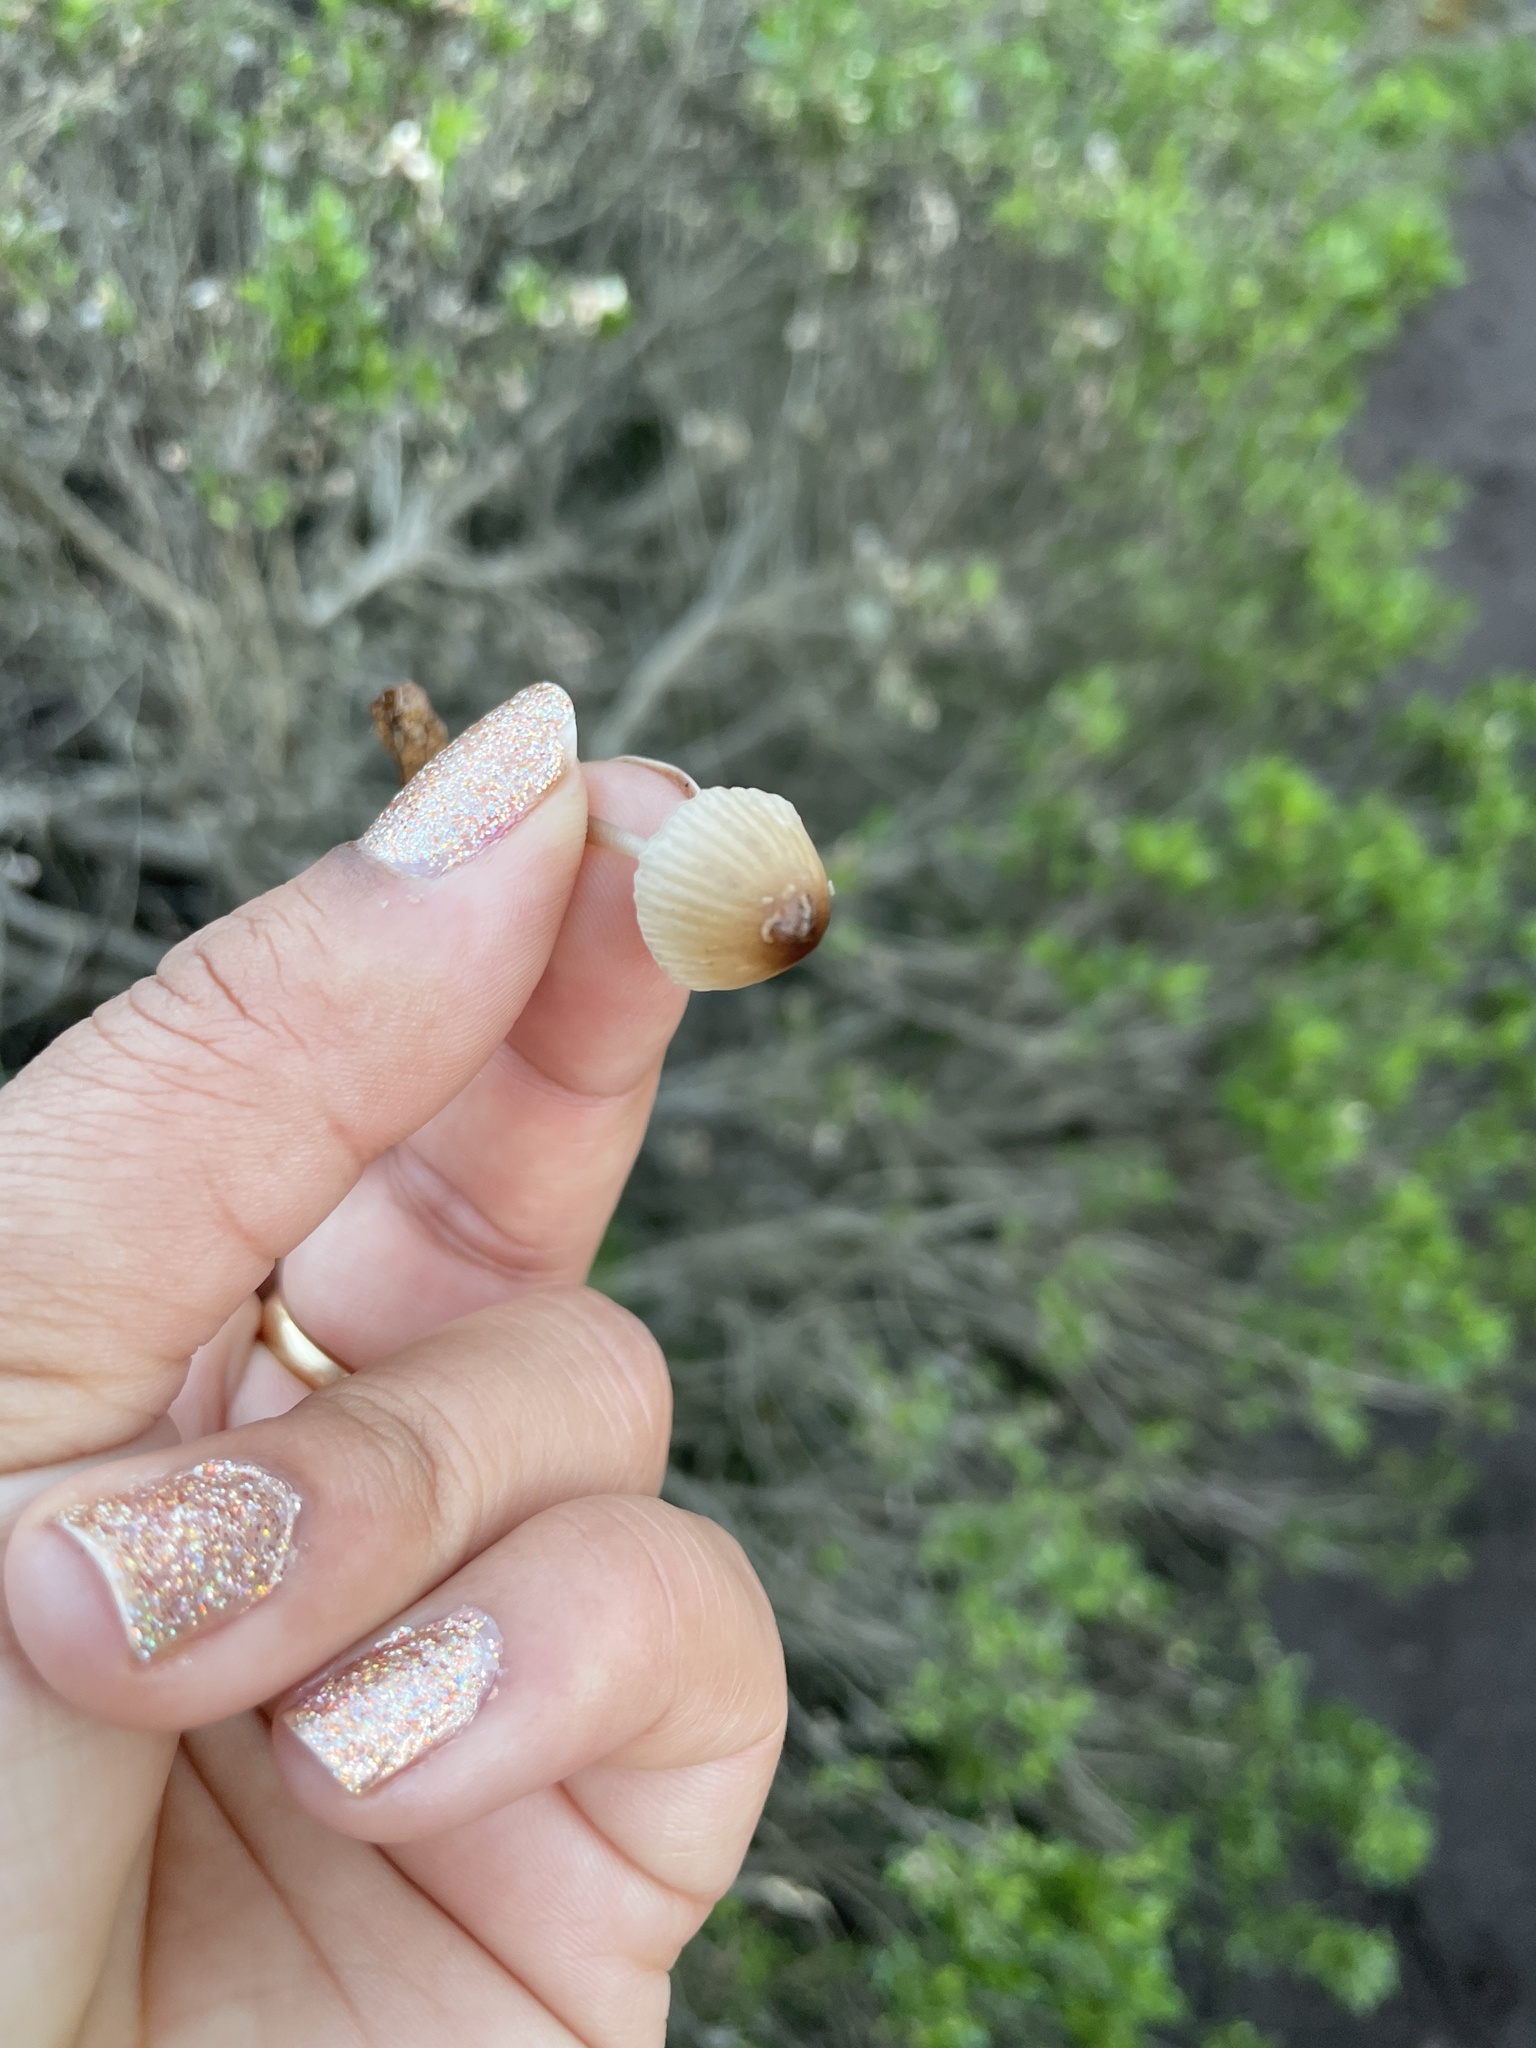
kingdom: Fungi
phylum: Basidiomycota
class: Agaricomycetes
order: Agaricales
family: Mycenaceae
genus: Mycena
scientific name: Mycena galopus
